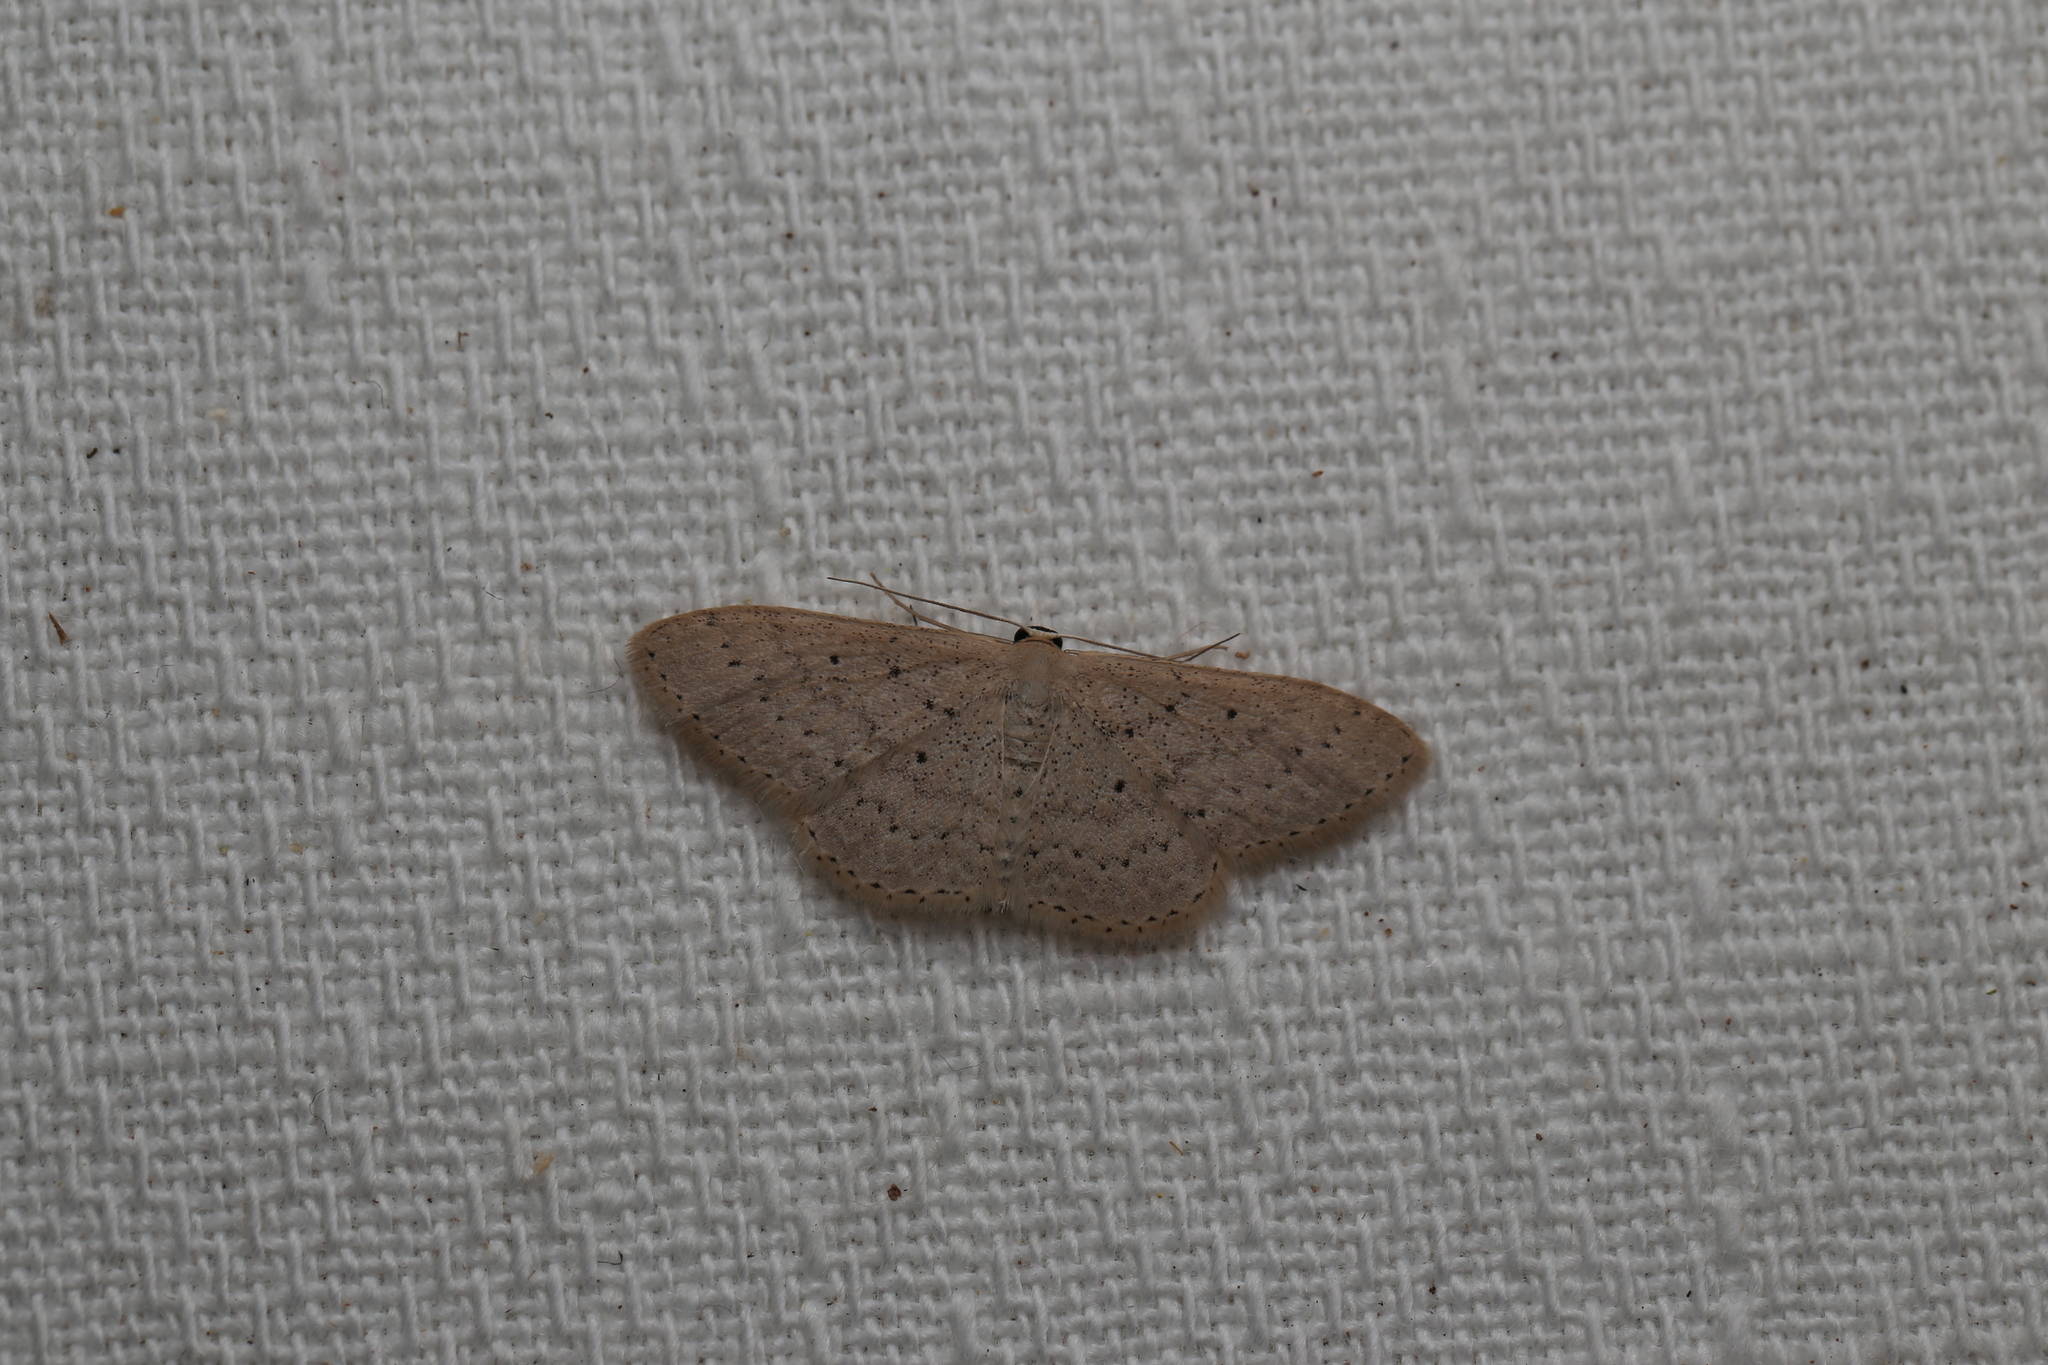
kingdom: Animalia
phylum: Arthropoda
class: Insecta
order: Lepidoptera
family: Geometridae
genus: Scopula
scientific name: Scopula sublinearia
